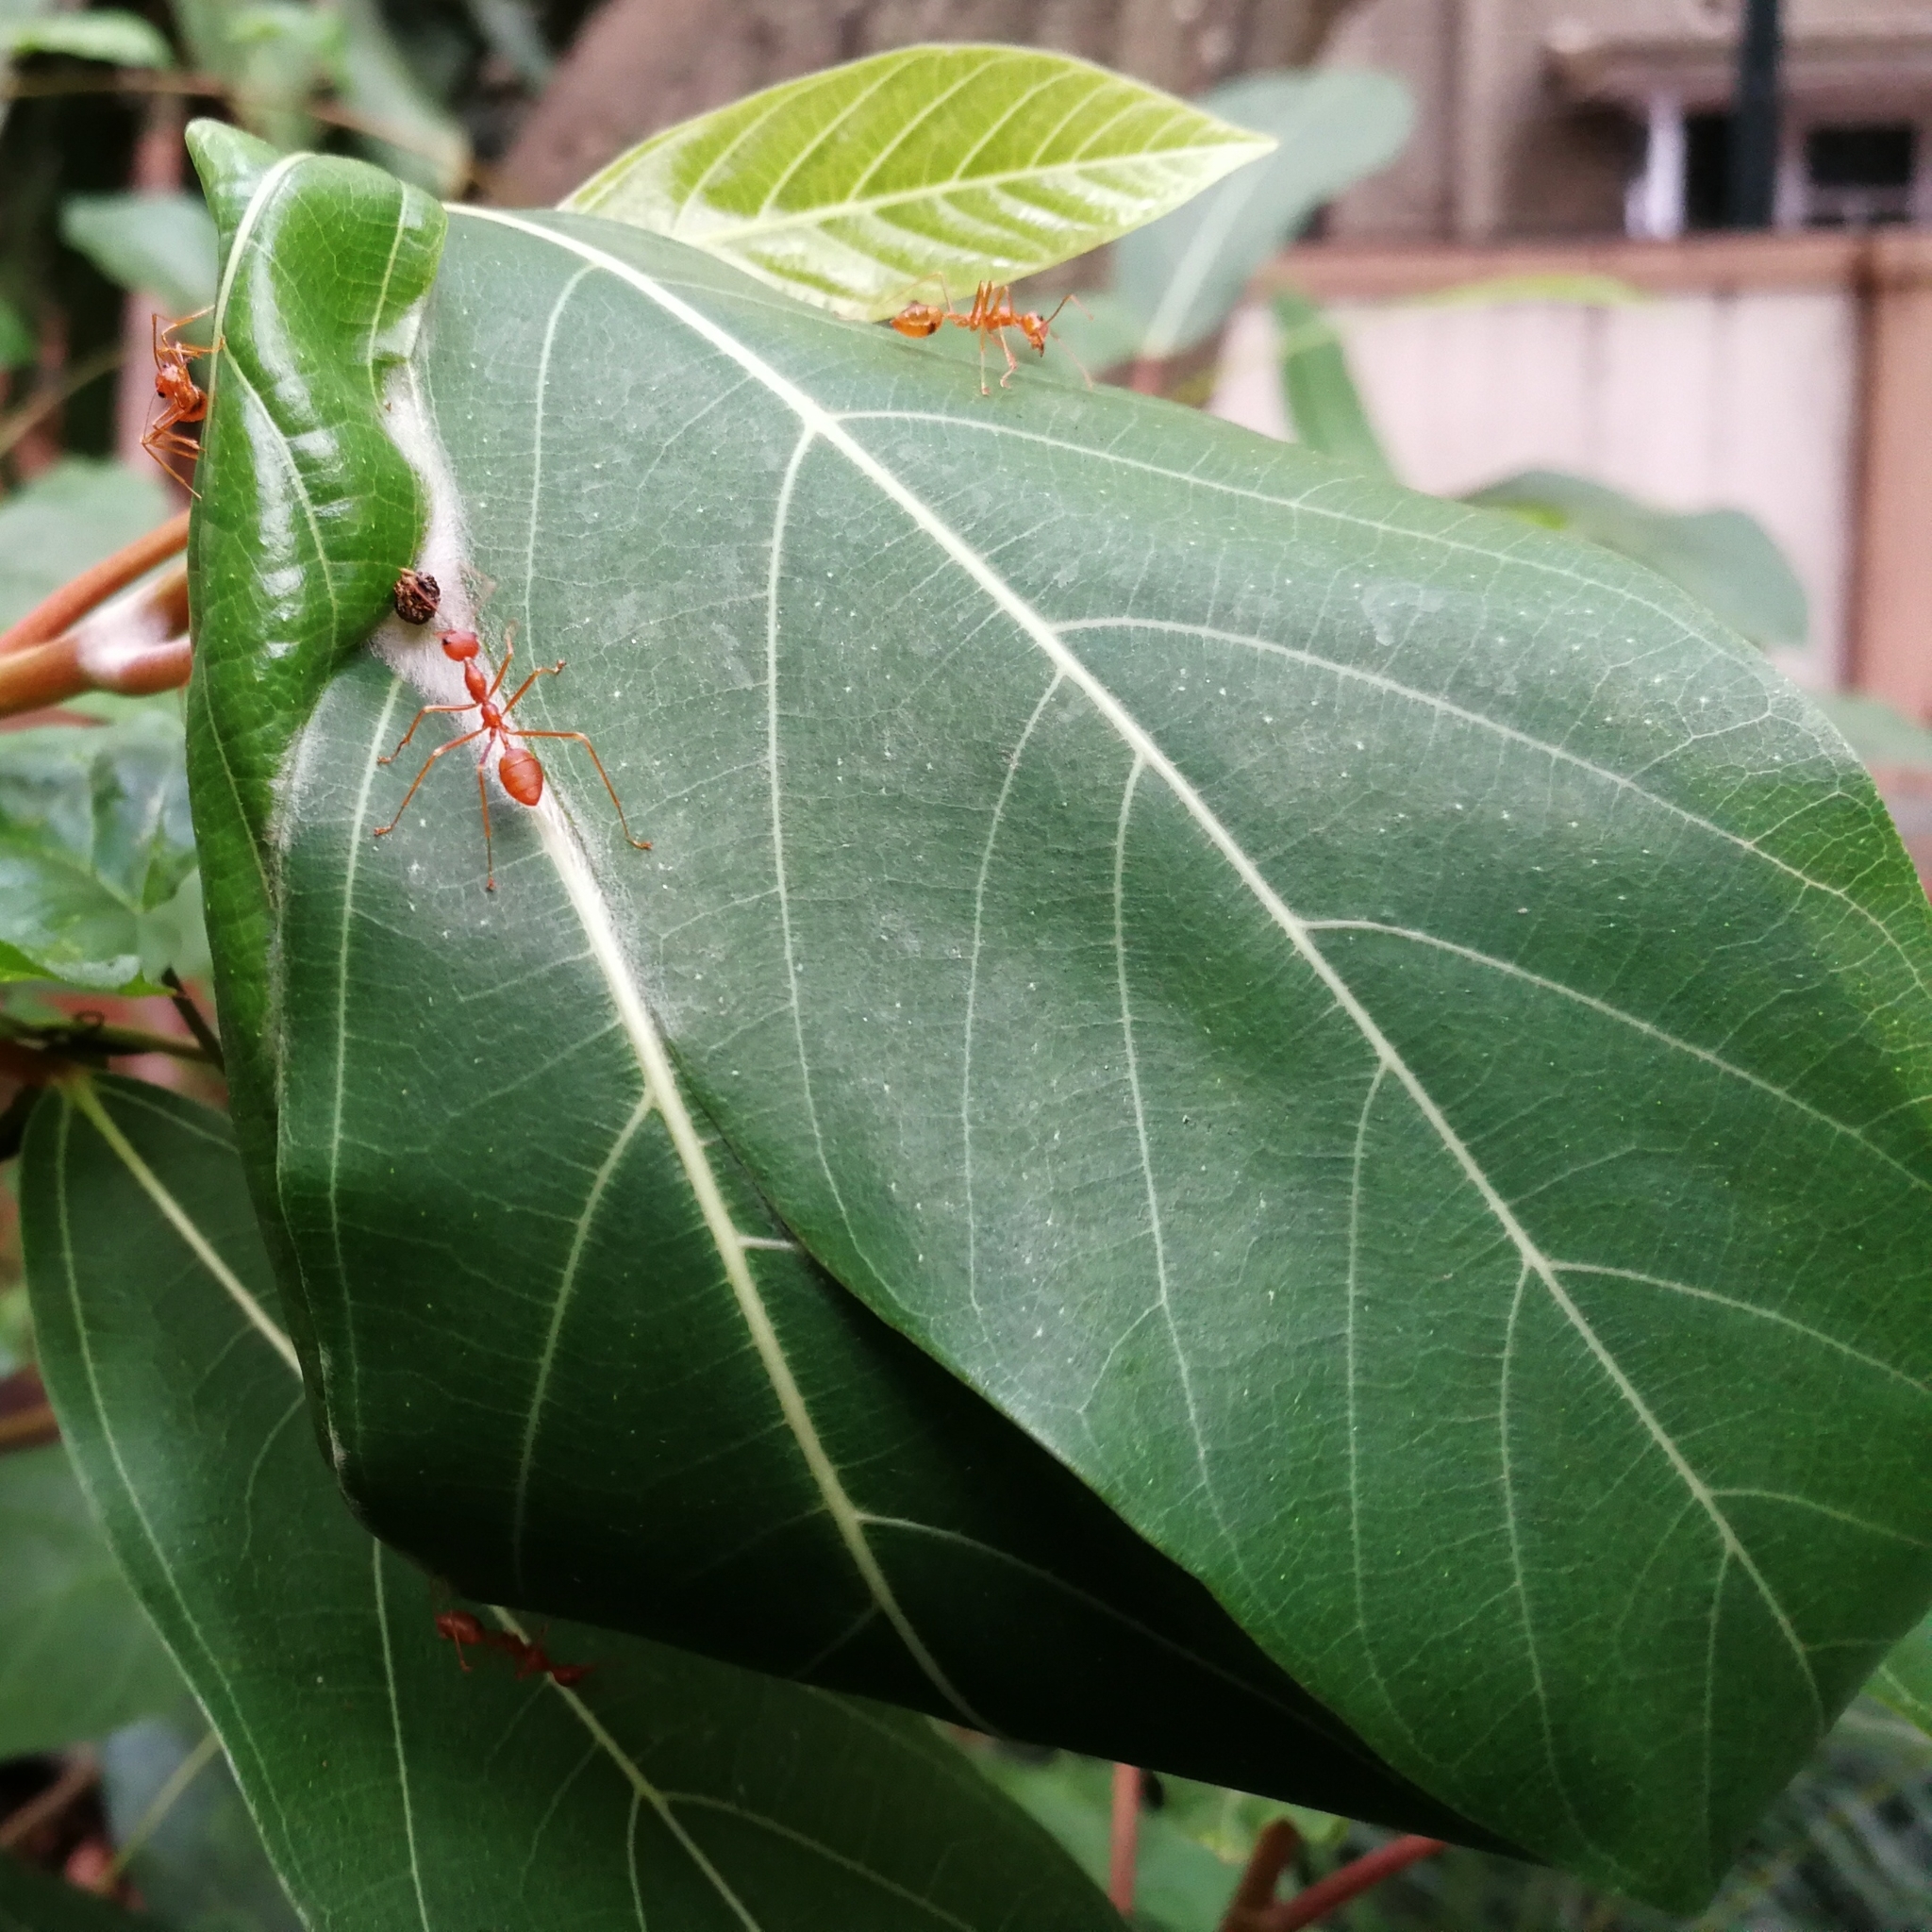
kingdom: Animalia
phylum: Arthropoda
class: Insecta
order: Hymenoptera
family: Formicidae
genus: Oecophylla
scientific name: Oecophylla smaragdina
